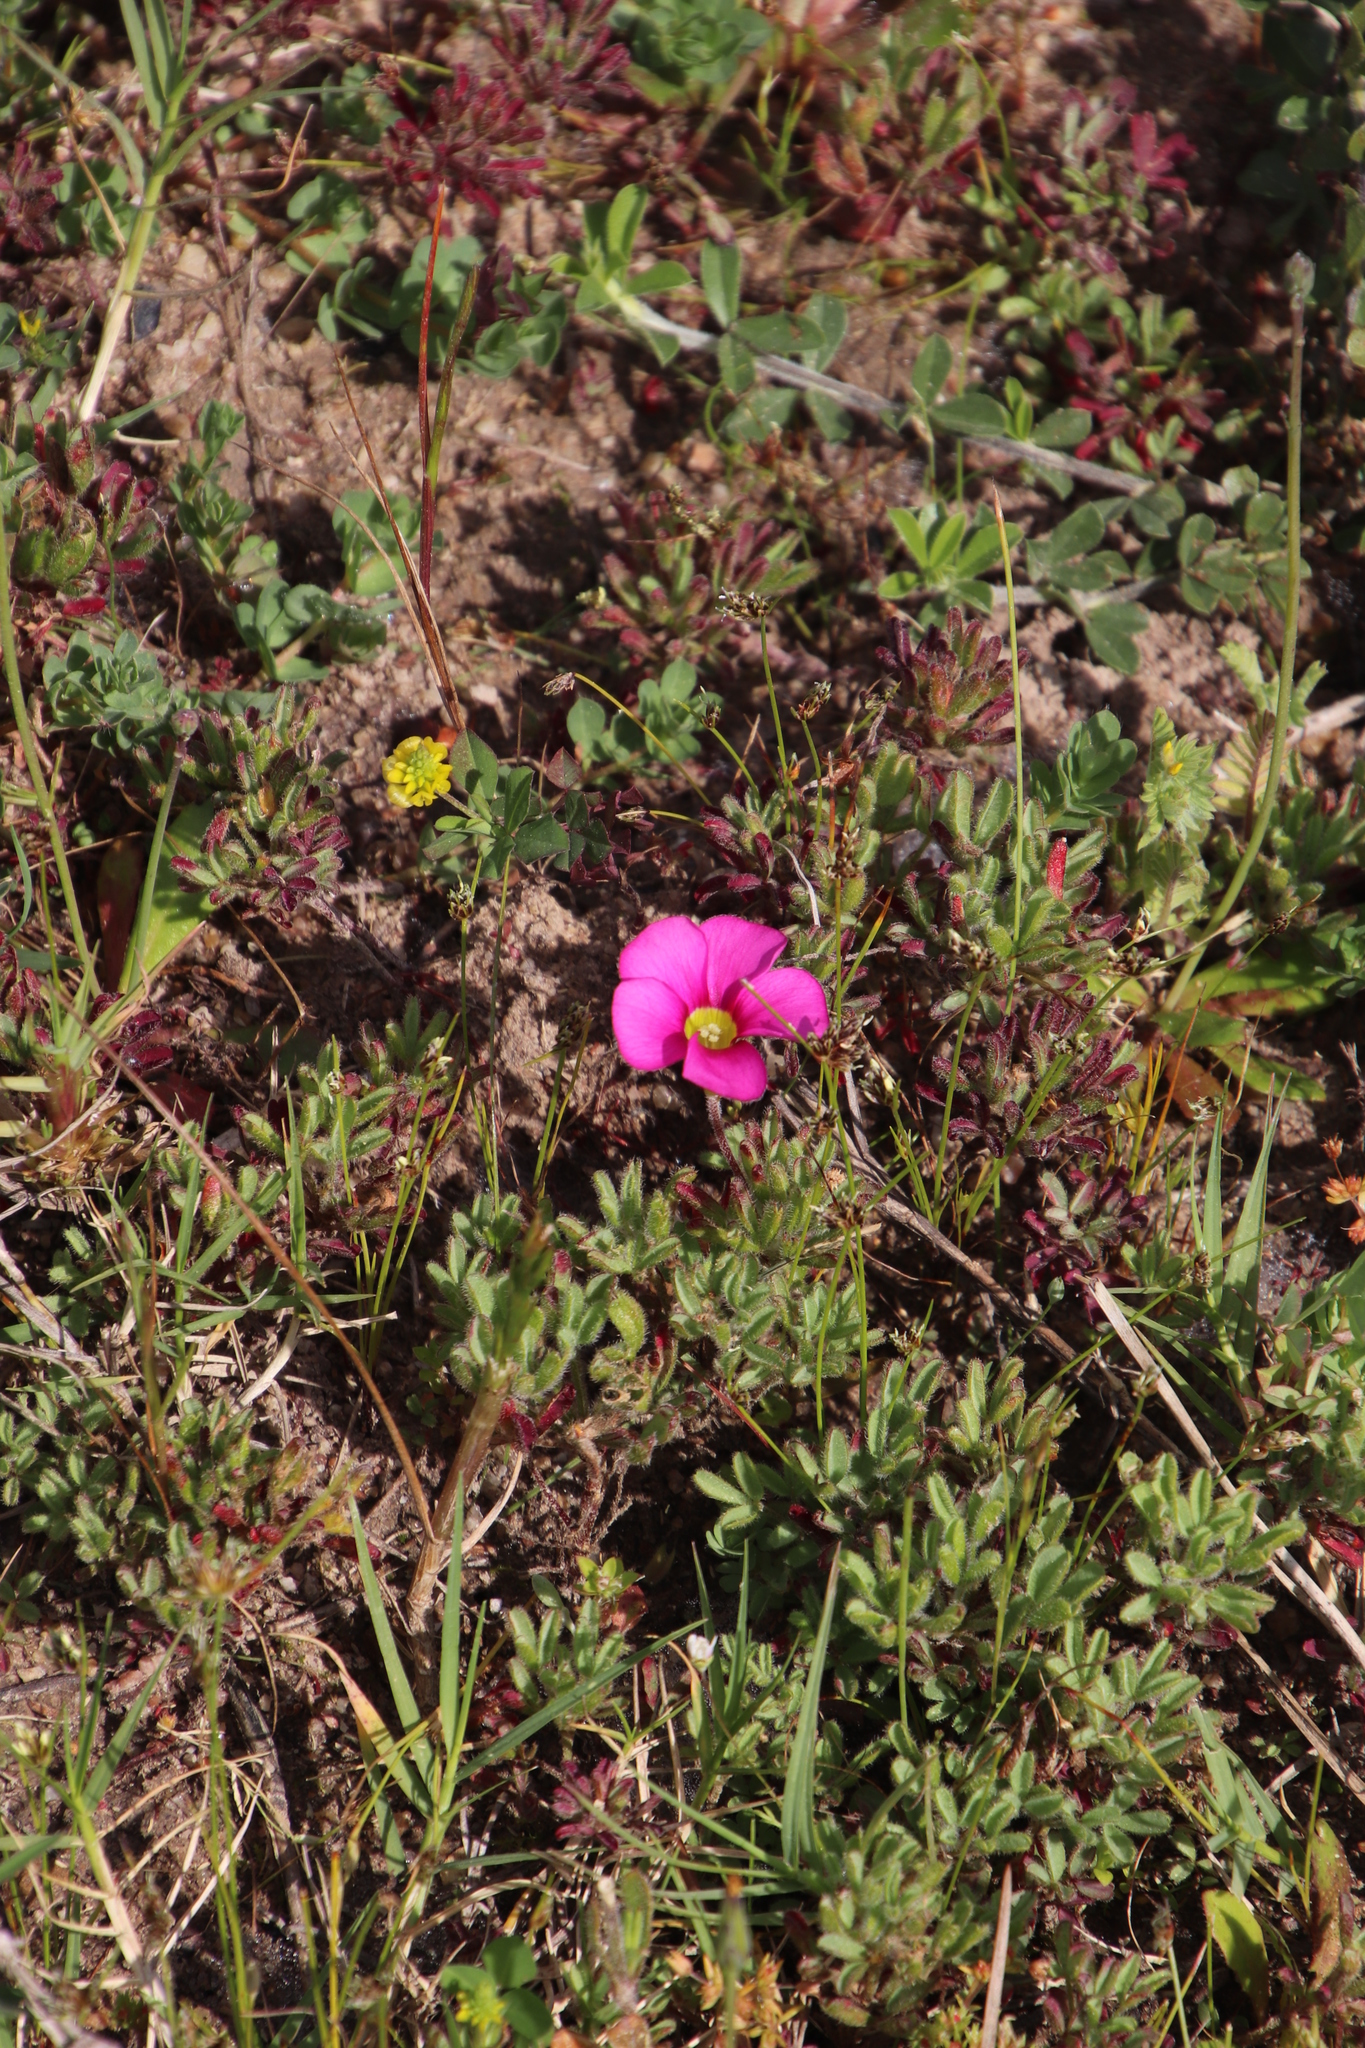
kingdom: Plantae
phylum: Tracheophyta
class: Magnoliopsida
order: Oxalidales
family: Oxalidaceae
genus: Oxalis
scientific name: Oxalis glabra
